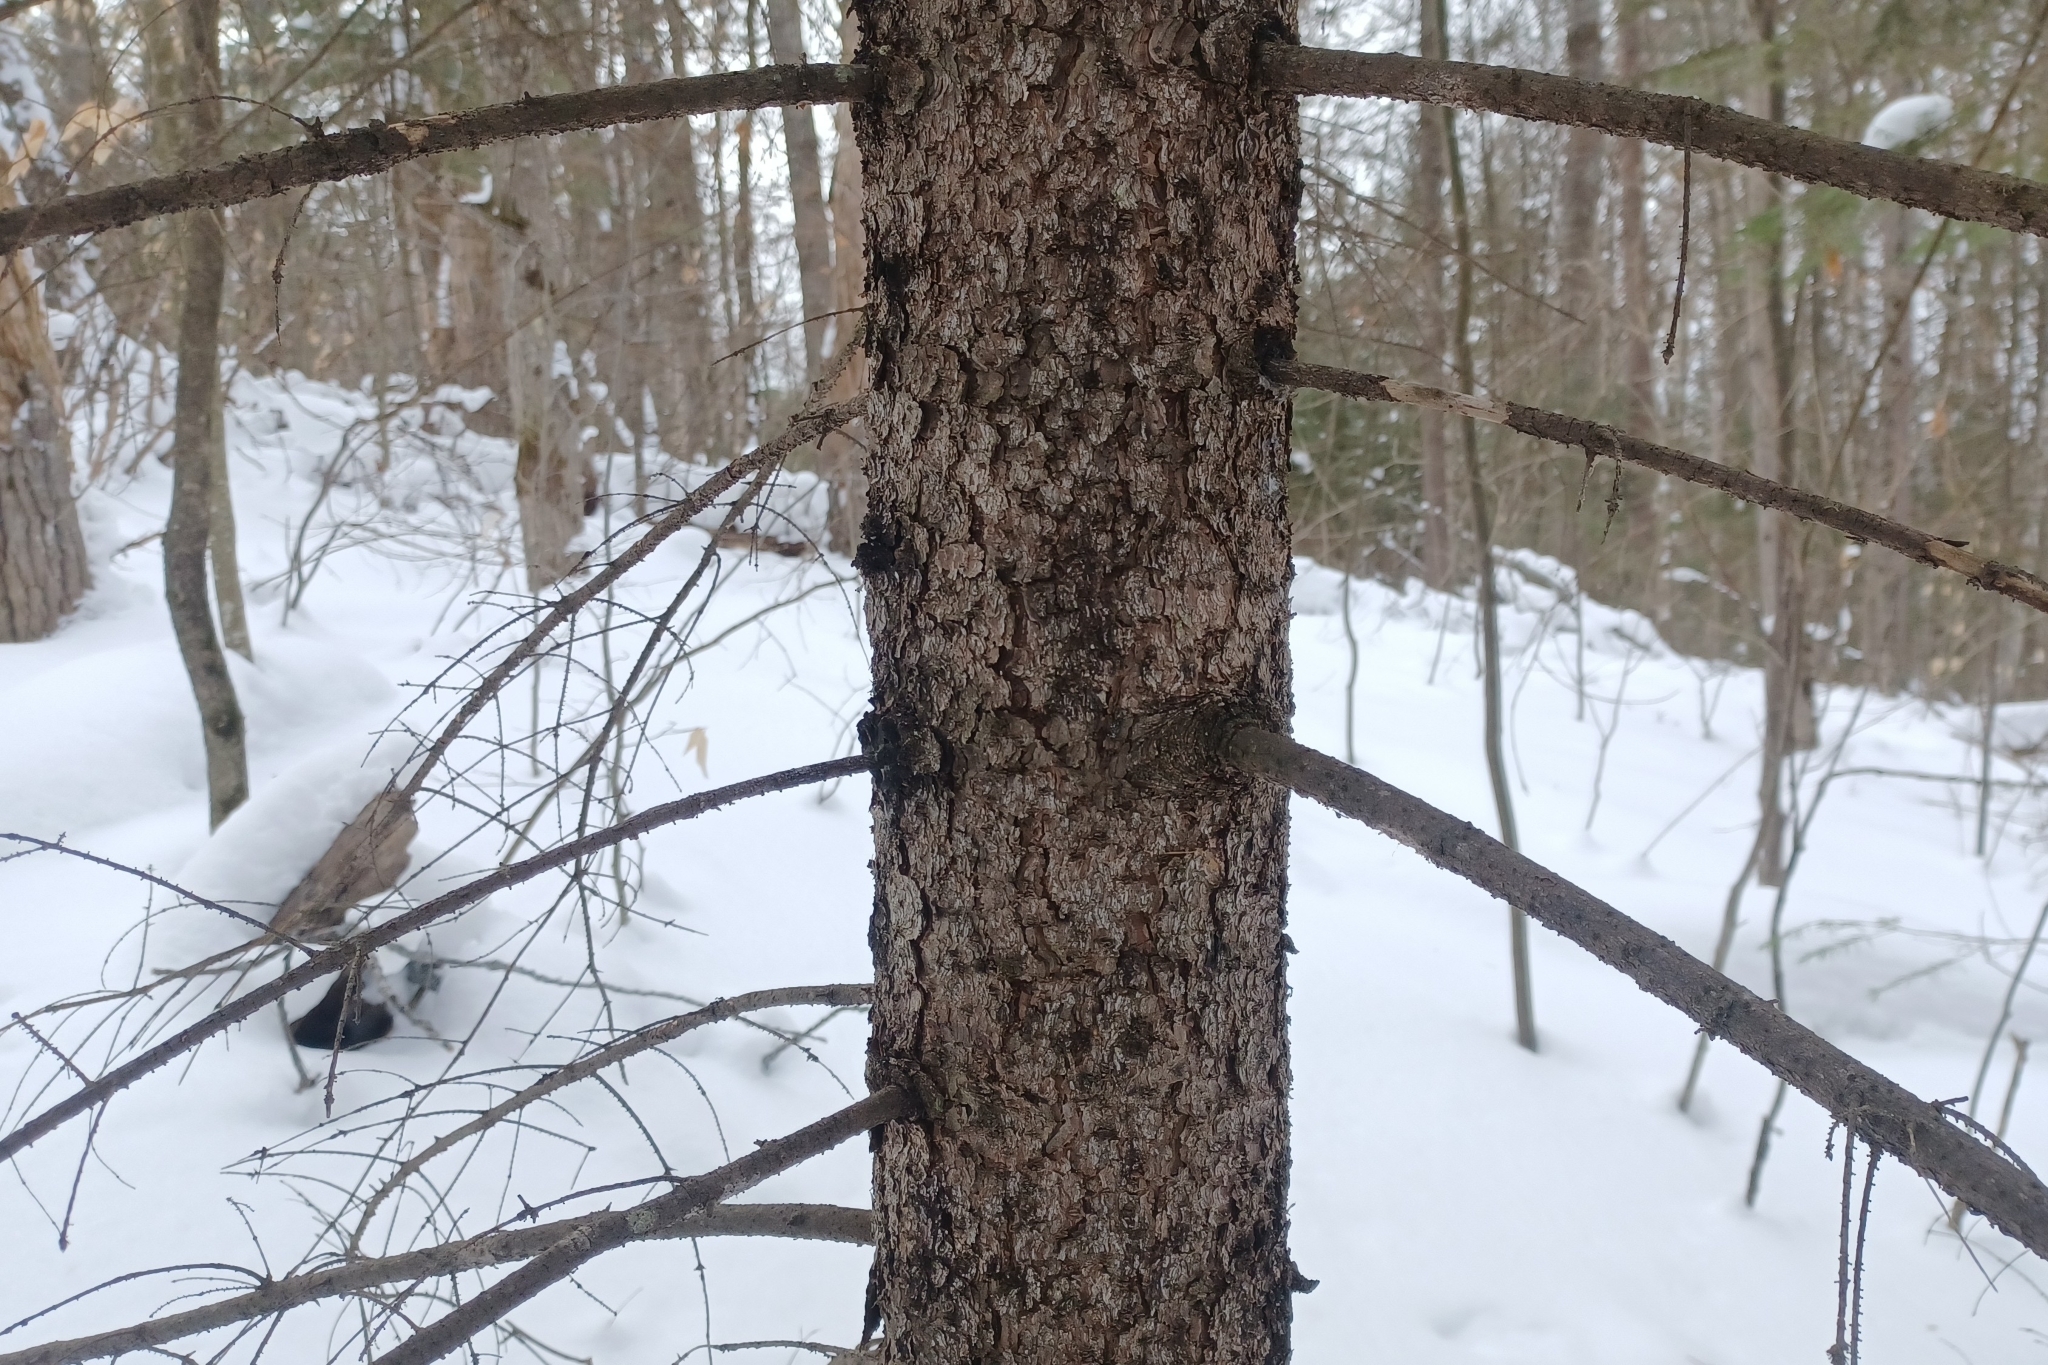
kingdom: Plantae
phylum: Tracheophyta
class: Pinopsida
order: Pinales
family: Pinaceae
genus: Picea
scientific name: Picea rubens
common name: Red spruce
